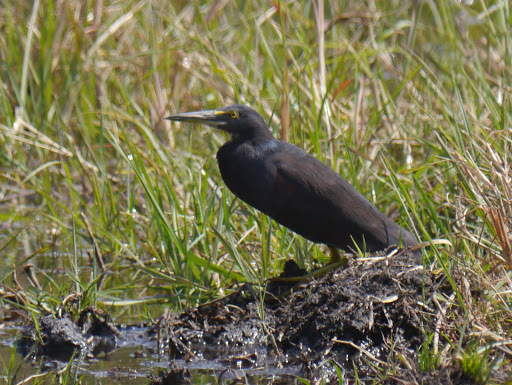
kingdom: Animalia
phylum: Chordata
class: Aves
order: Pelecaniformes
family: Ardeidae
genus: Ardeola
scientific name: Ardeola rufiventris
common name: Rufous-bellied heron
